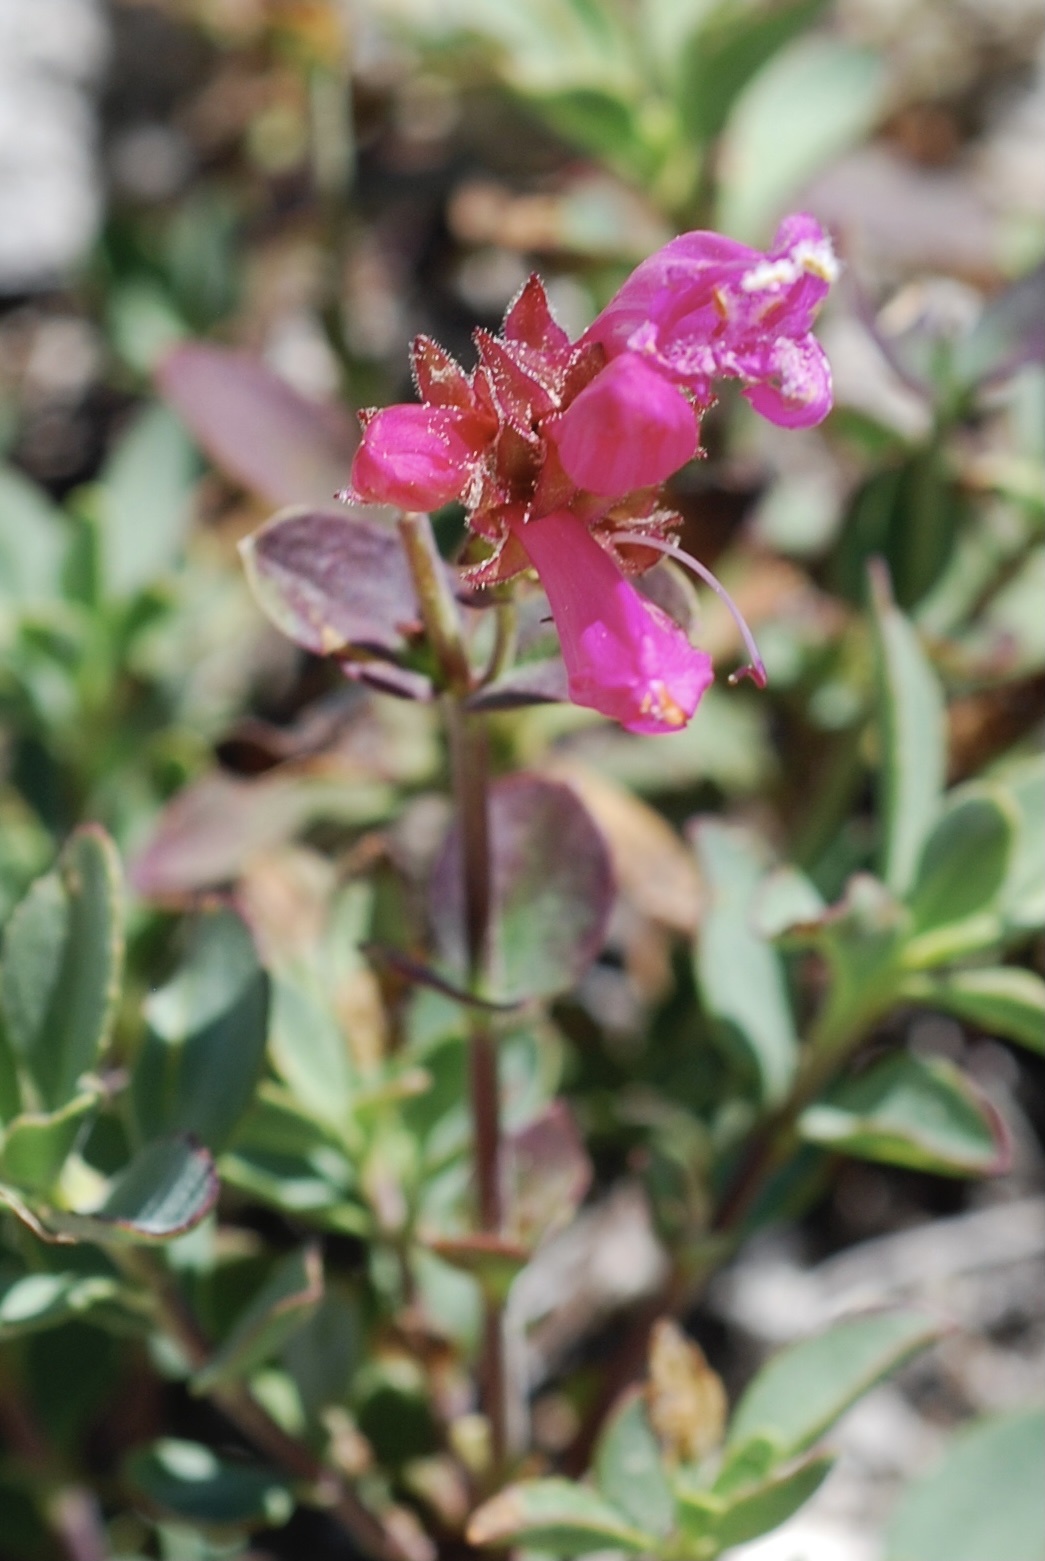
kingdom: Plantae
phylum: Tracheophyta
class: Magnoliopsida
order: Lamiales
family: Plantaginaceae
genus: Penstemon
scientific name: Penstemon newberryi
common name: Mountain-pride
